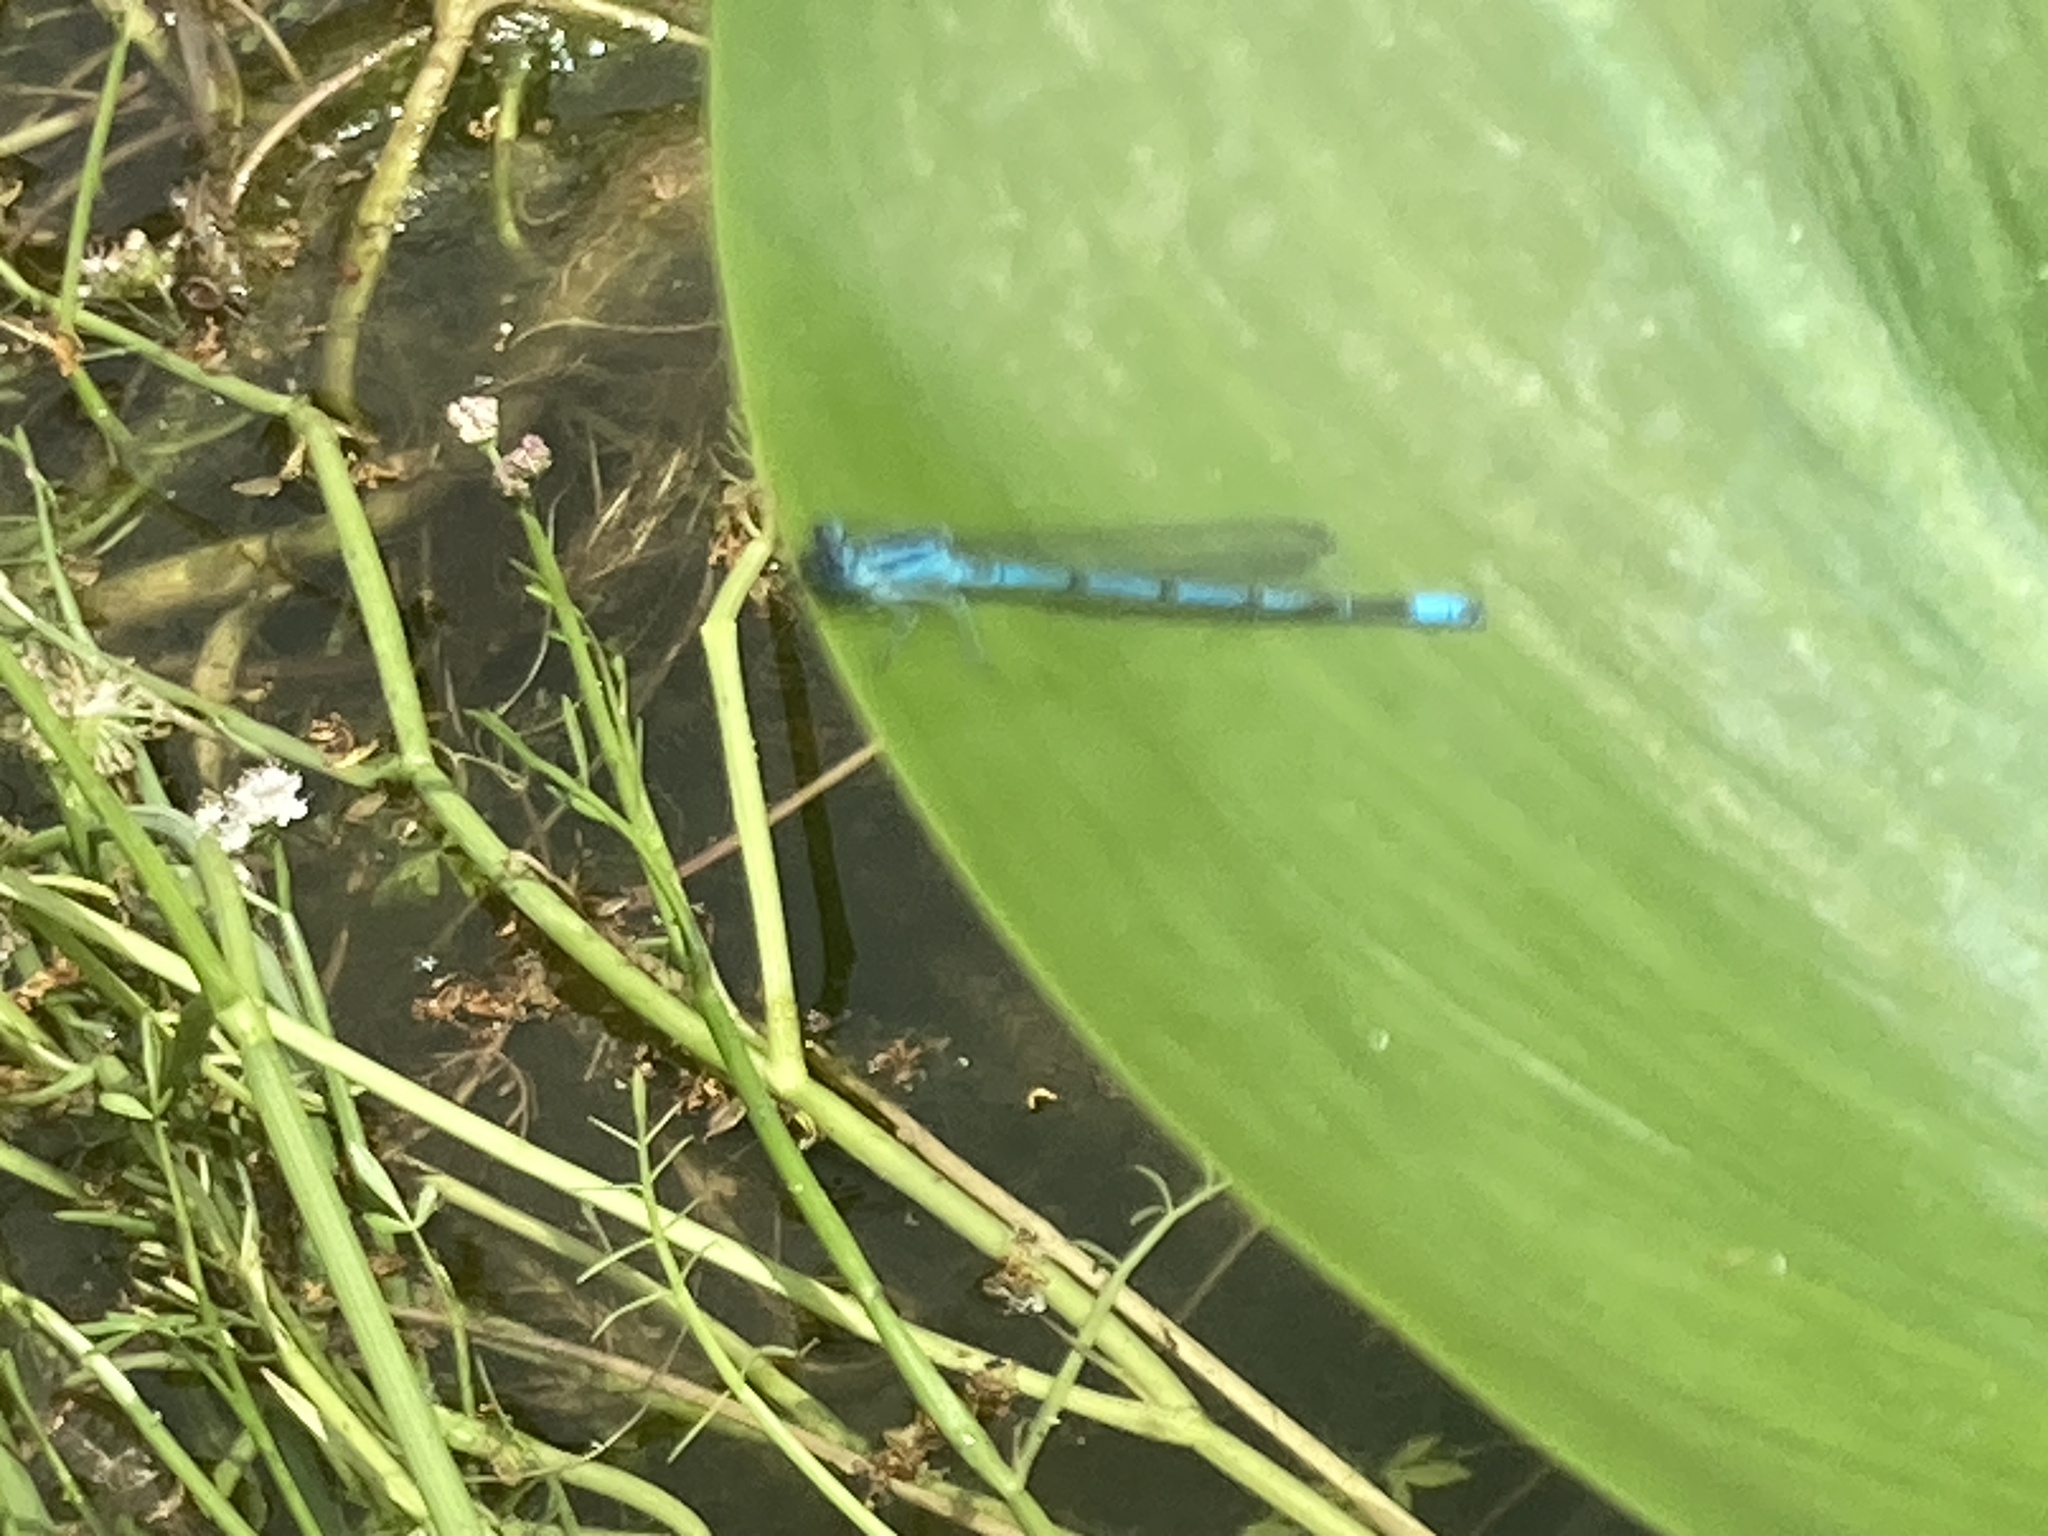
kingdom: Animalia
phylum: Arthropoda
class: Insecta
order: Odonata
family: Coenagrionidae
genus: Enallagma
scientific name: Enallagma cyathigerum
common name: Common blue damselfly
